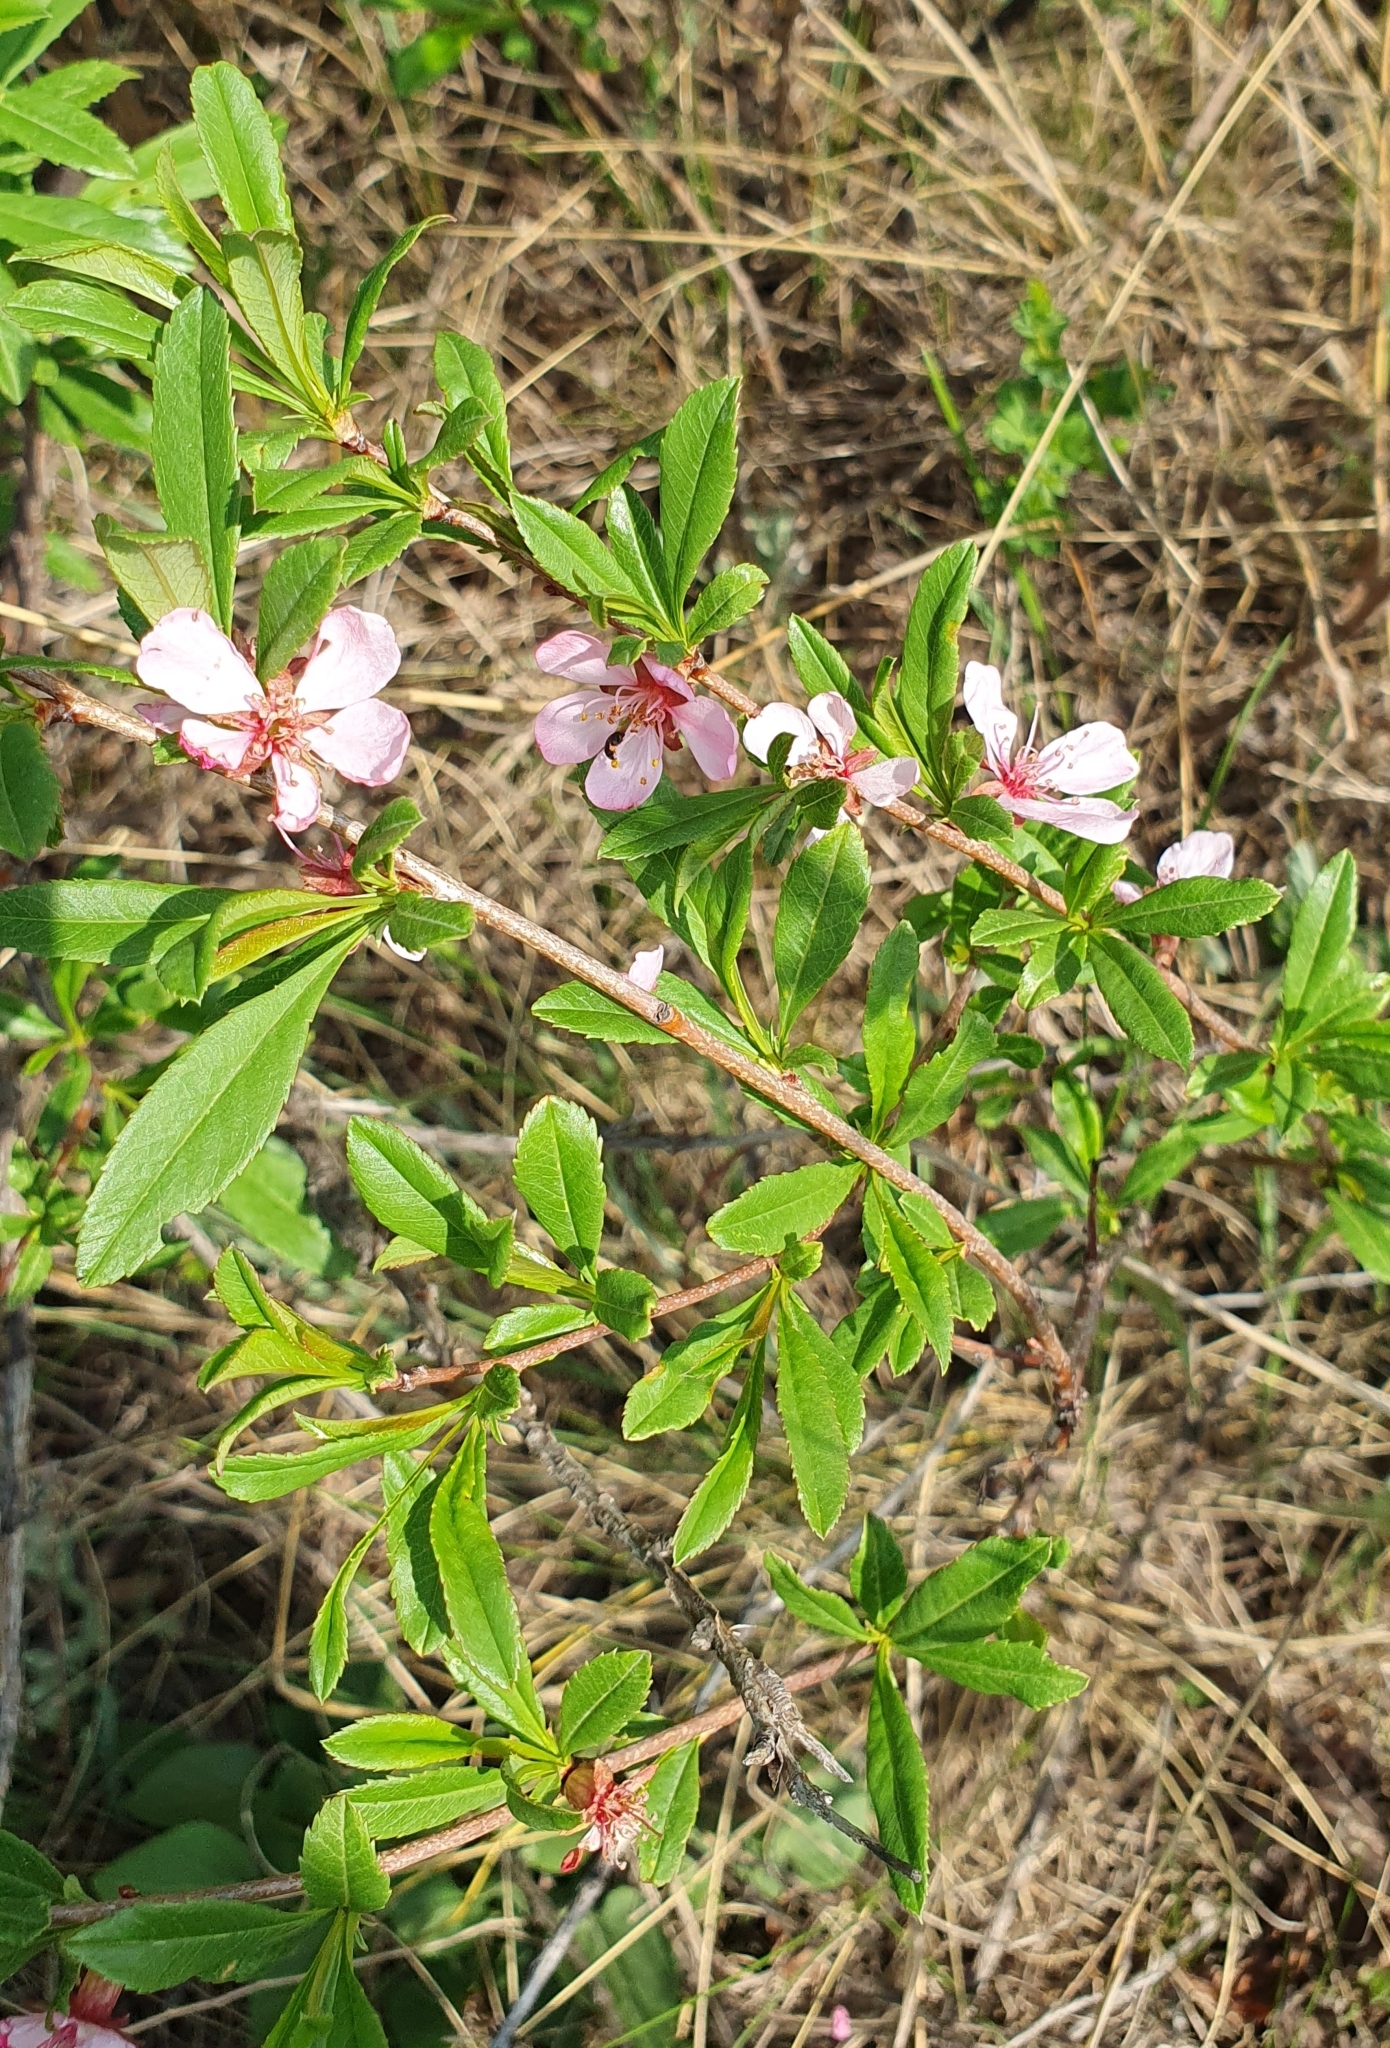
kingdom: Plantae
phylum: Tracheophyta
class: Magnoliopsida
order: Rosales
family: Rosaceae
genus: Prunus
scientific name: Prunus tenella
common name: Dwarf russian almond
